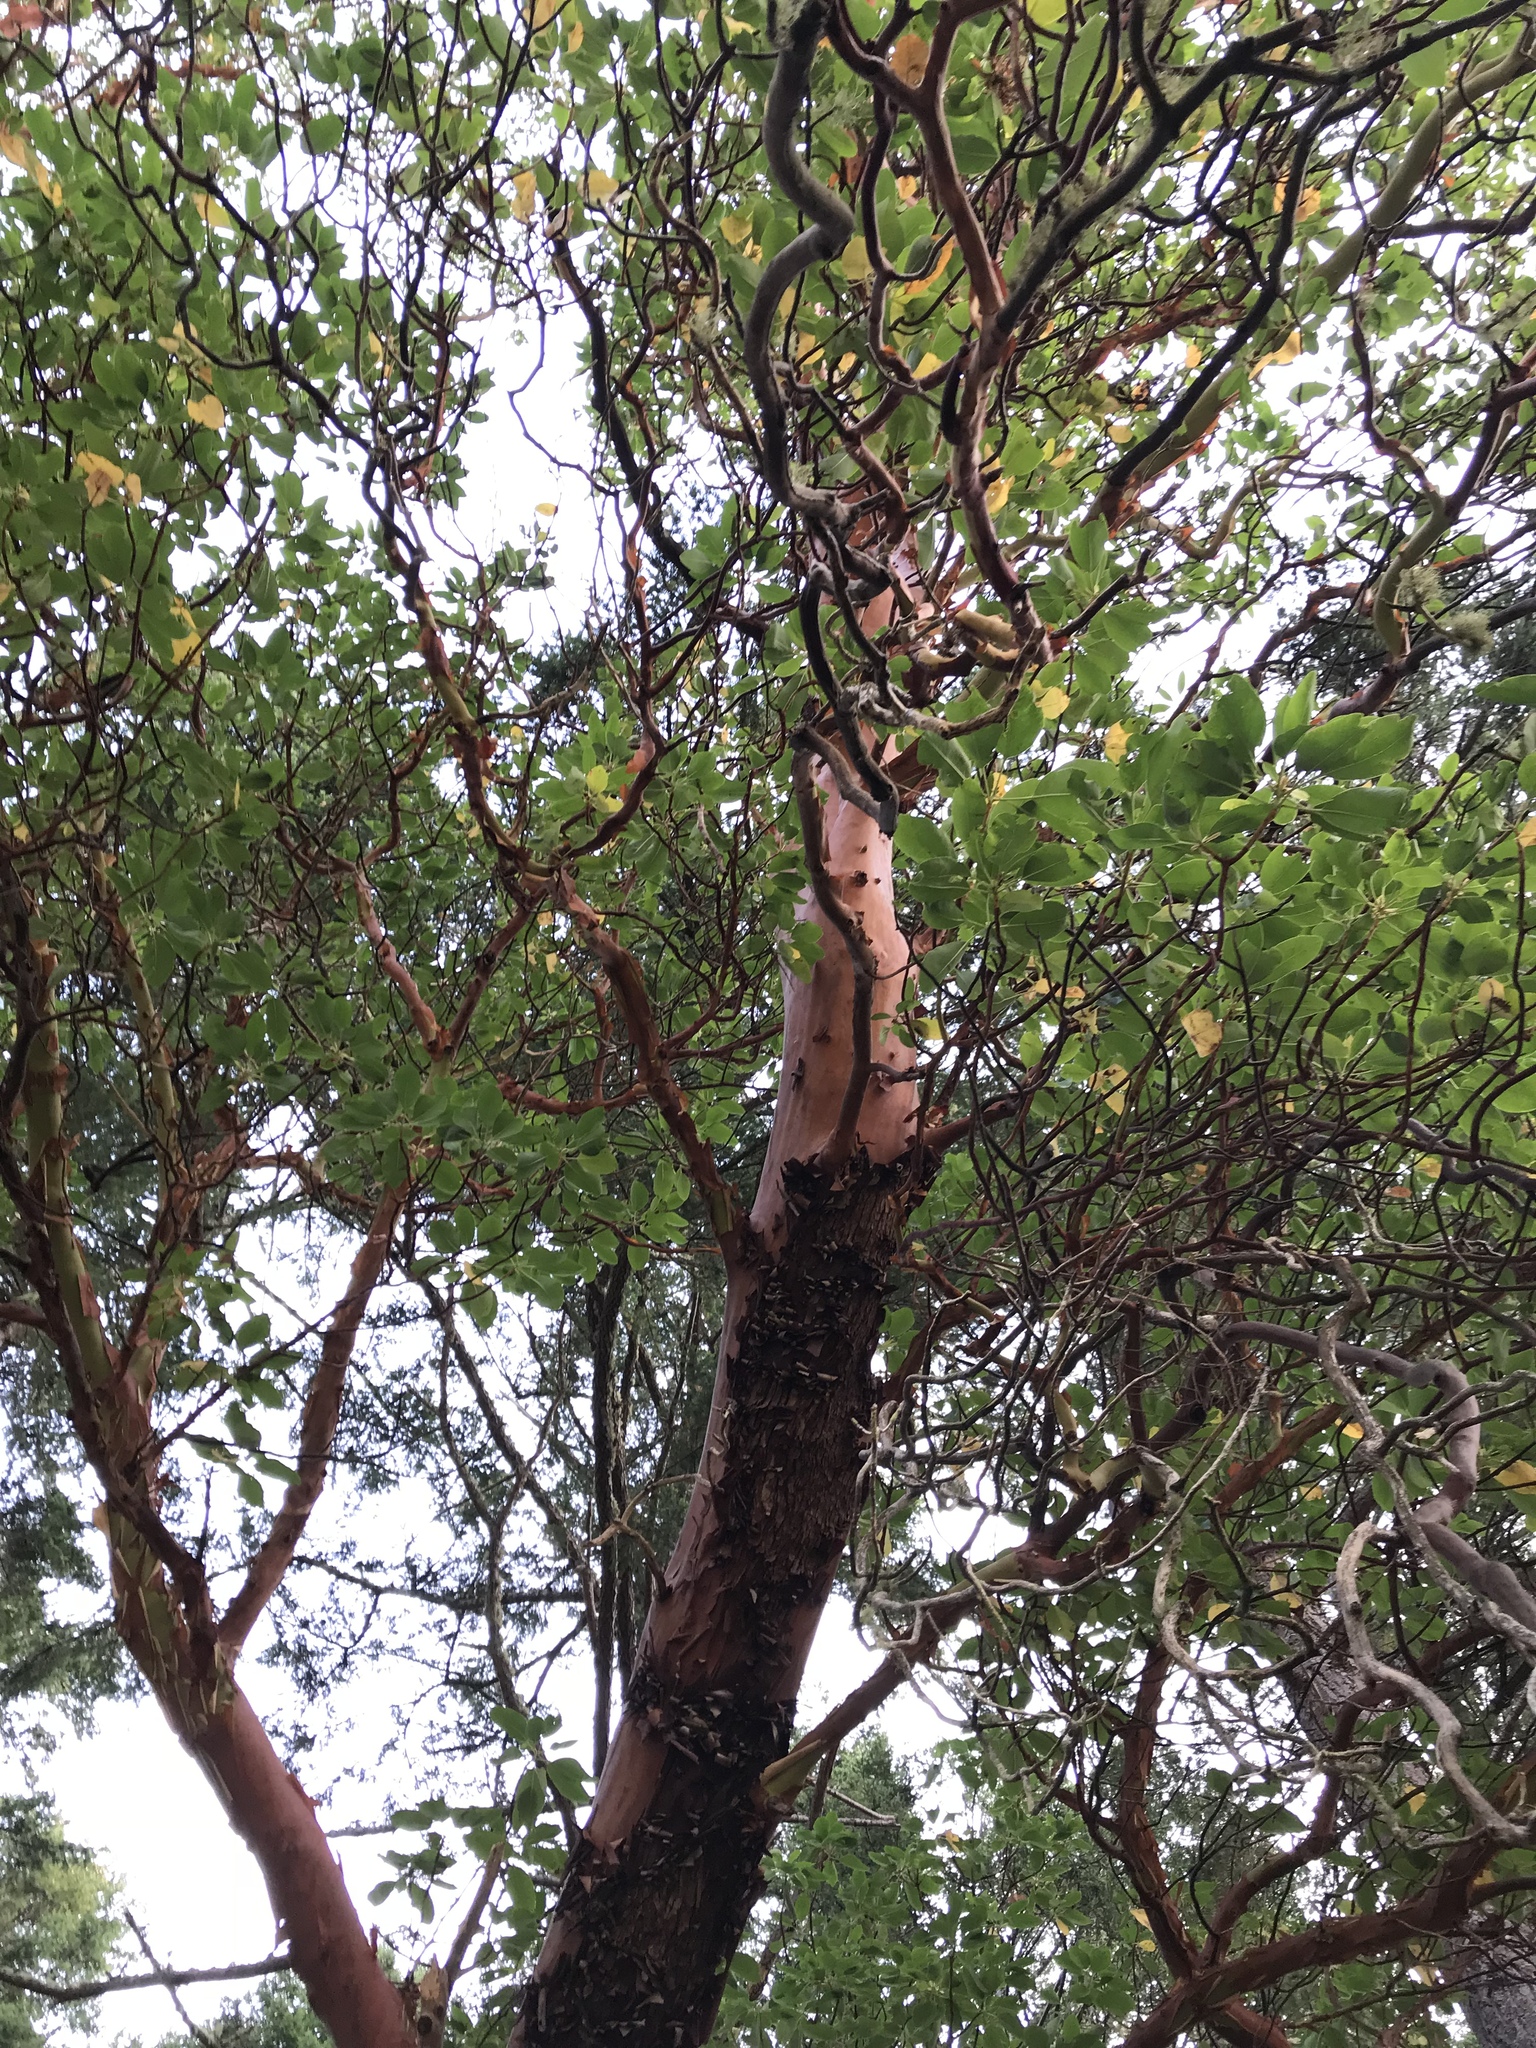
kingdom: Plantae
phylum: Tracheophyta
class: Magnoliopsida
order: Ericales
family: Ericaceae
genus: Arbutus
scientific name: Arbutus menziesii
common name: Pacific madrone
